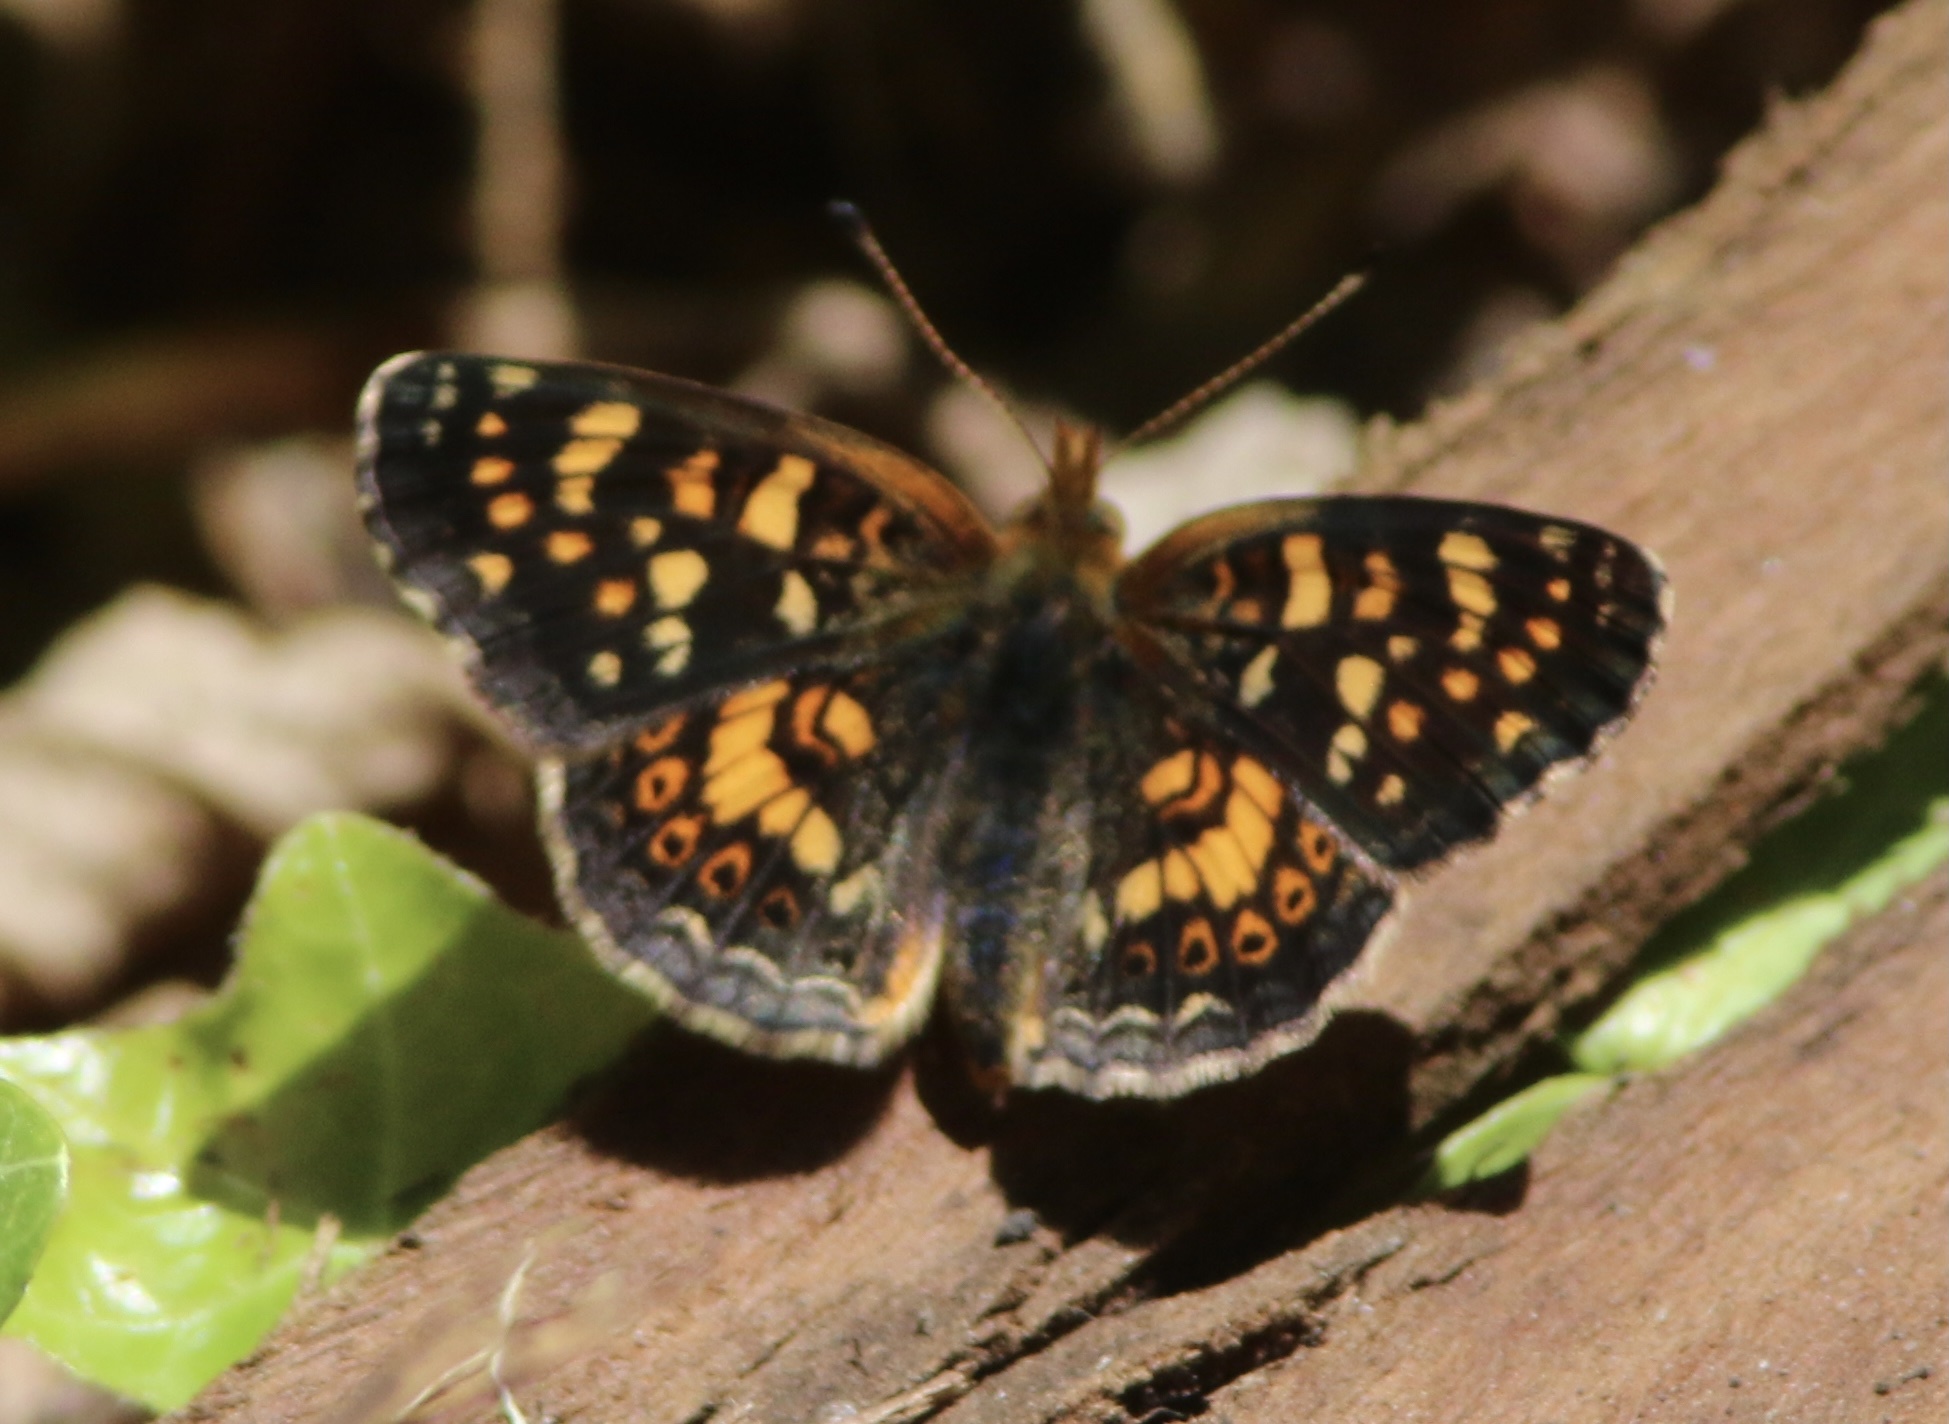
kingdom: Animalia
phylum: Arthropoda
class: Insecta
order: Lepidoptera
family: Nymphalidae
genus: Phyciodes
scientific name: Phyciodes tharos
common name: Pearl crescent
